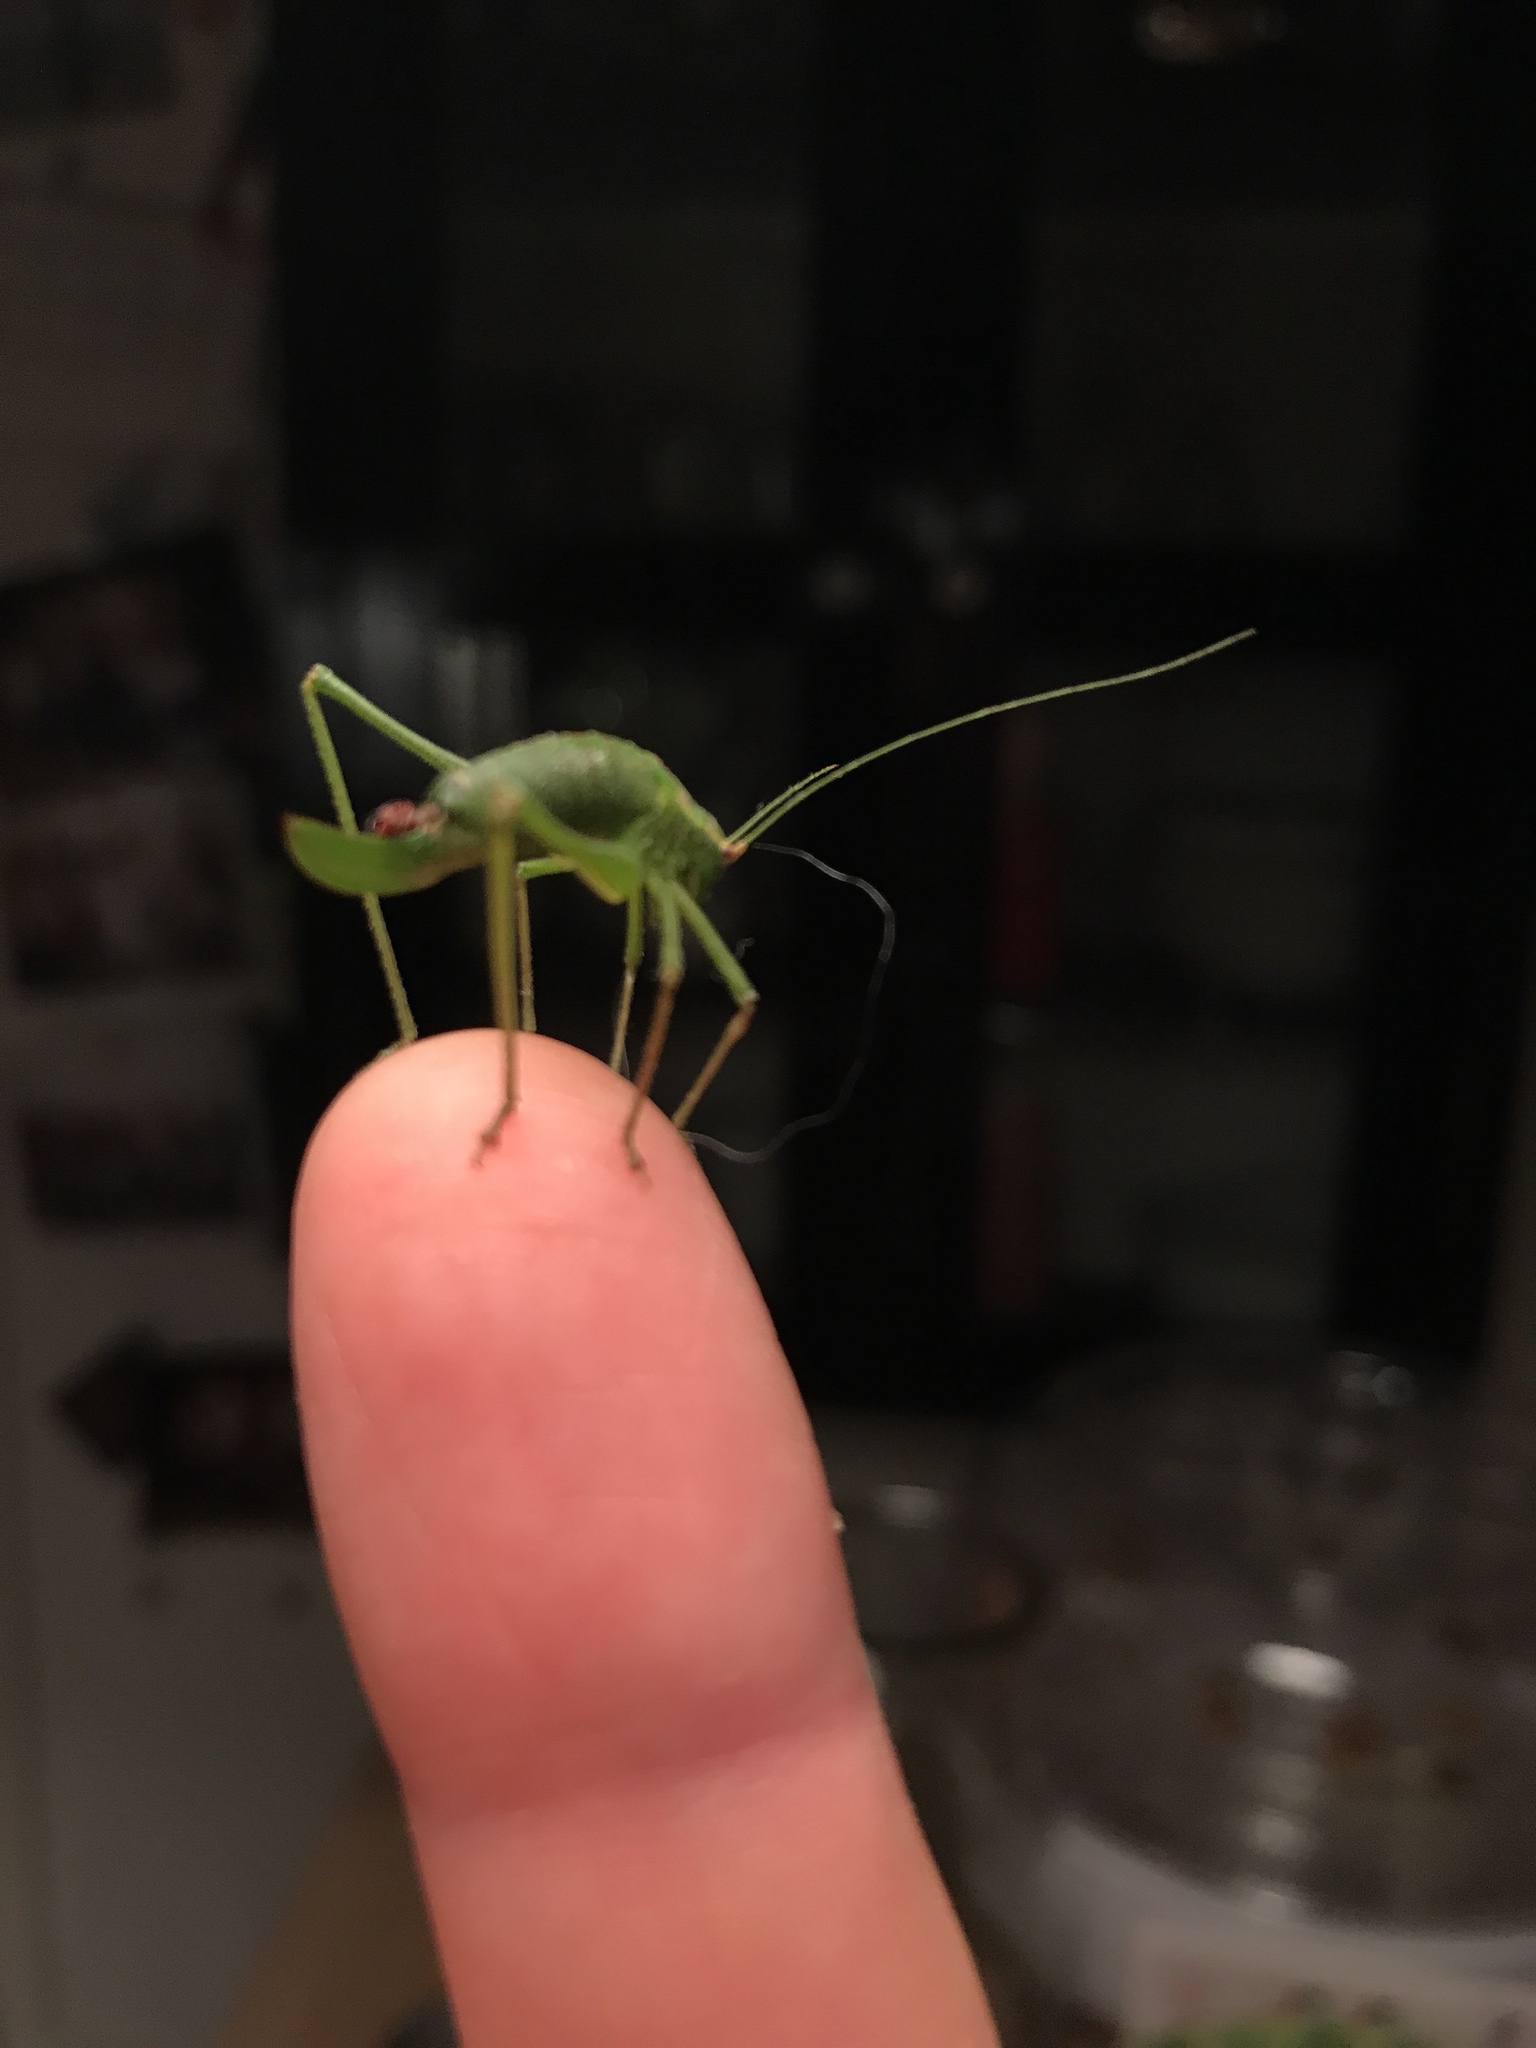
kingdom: Animalia
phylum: Arthropoda
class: Insecta
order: Orthoptera
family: Tettigoniidae
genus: Leptophyes
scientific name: Leptophyes punctatissima
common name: Speckled bush-cricket
